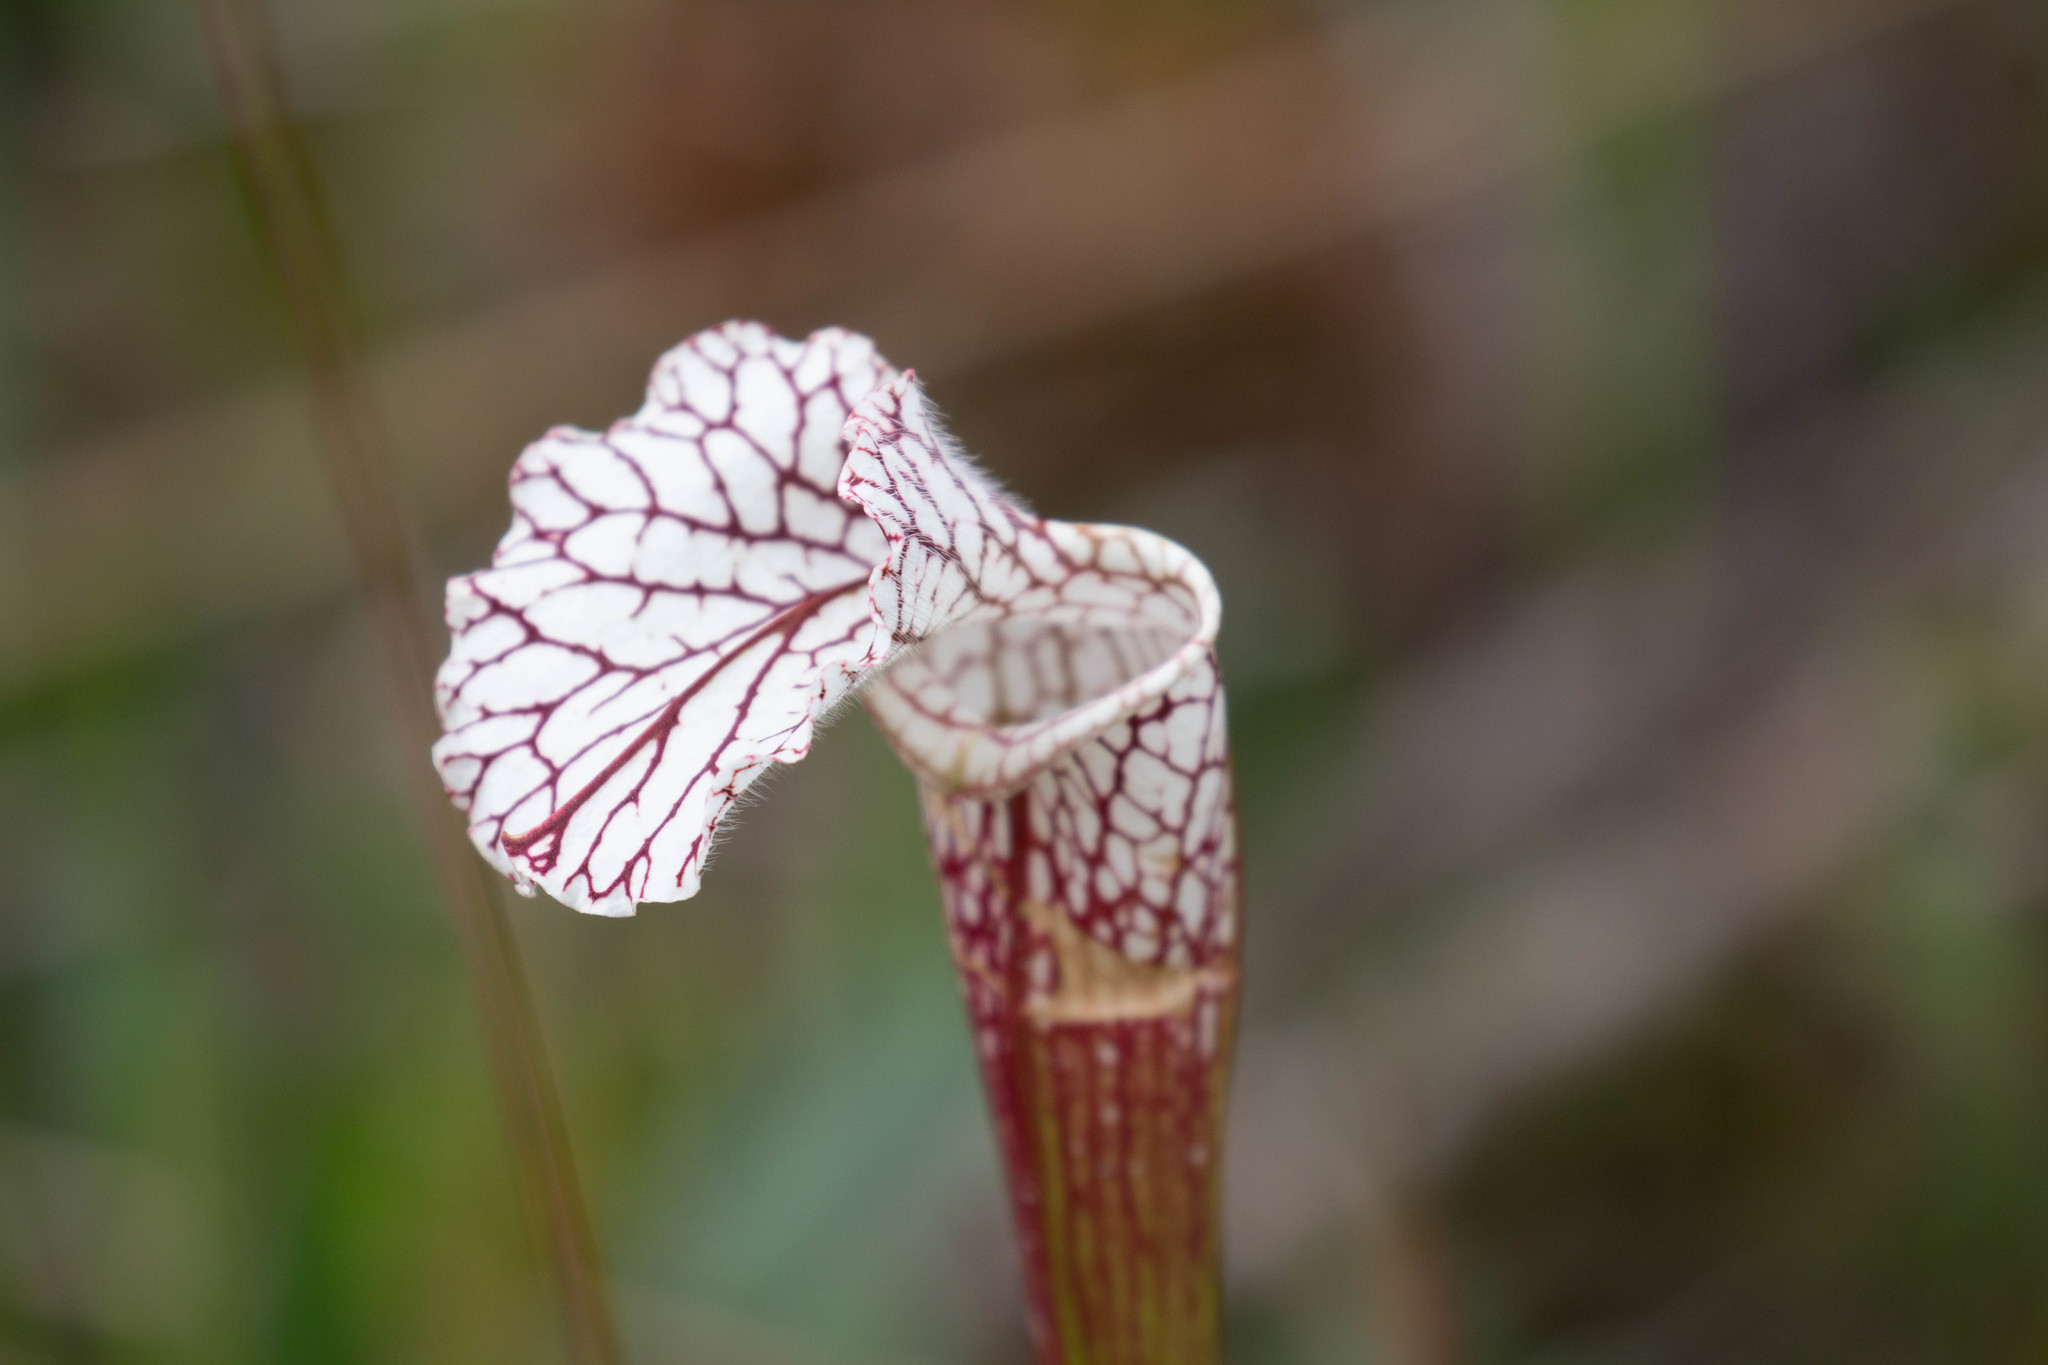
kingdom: Plantae
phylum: Tracheophyta
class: Magnoliopsida
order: Ericales
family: Sarraceniaceae
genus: Sarracenia
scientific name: Sarracenia leucophylla
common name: Purple trumpetleaf
